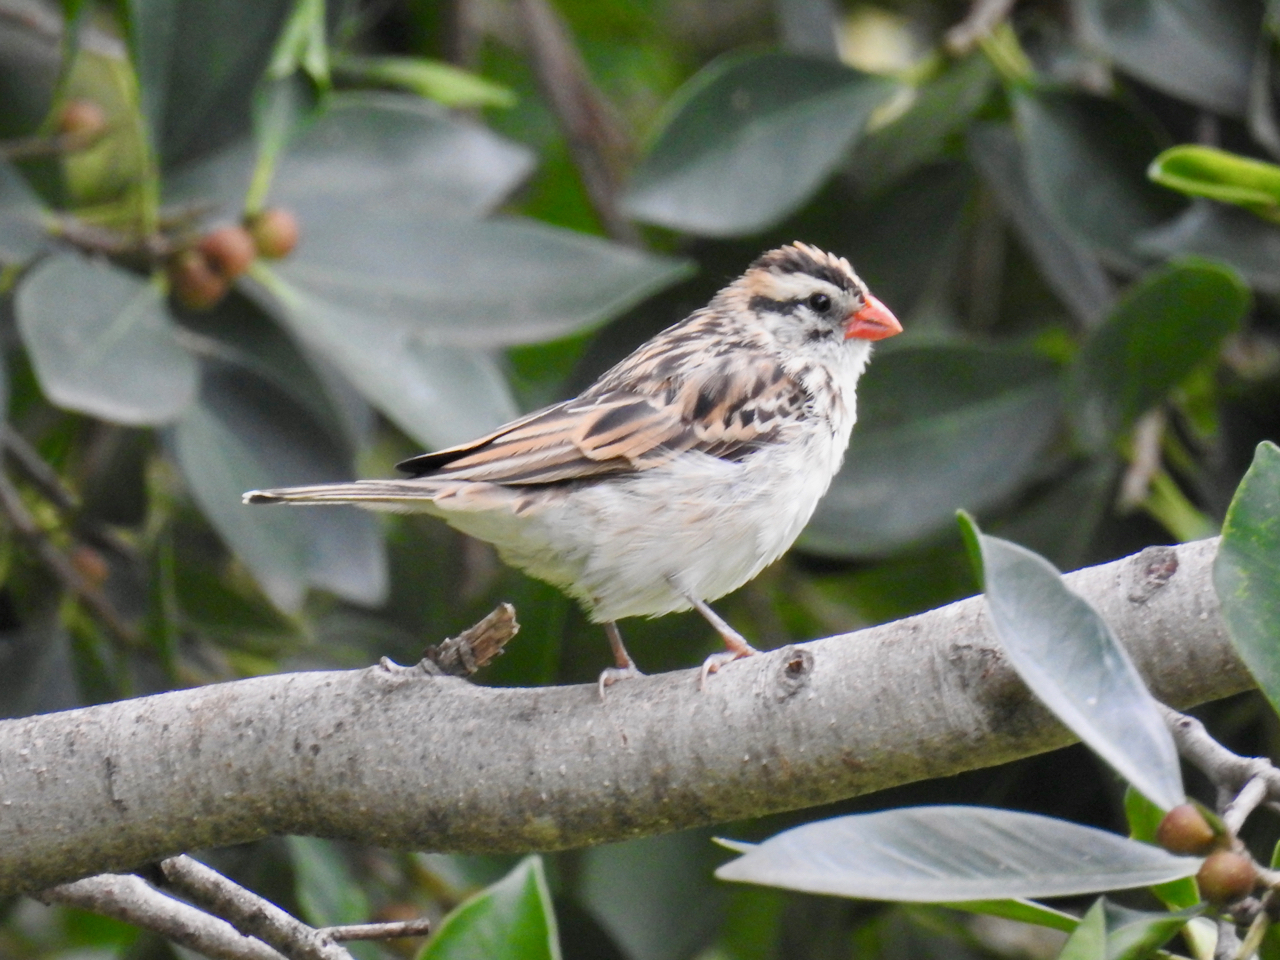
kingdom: Animalia
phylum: Chordata
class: Aves
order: Passeriformes
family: Viduidae
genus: Vidua
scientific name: Vidua macroura
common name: Pin-tailed whydah
